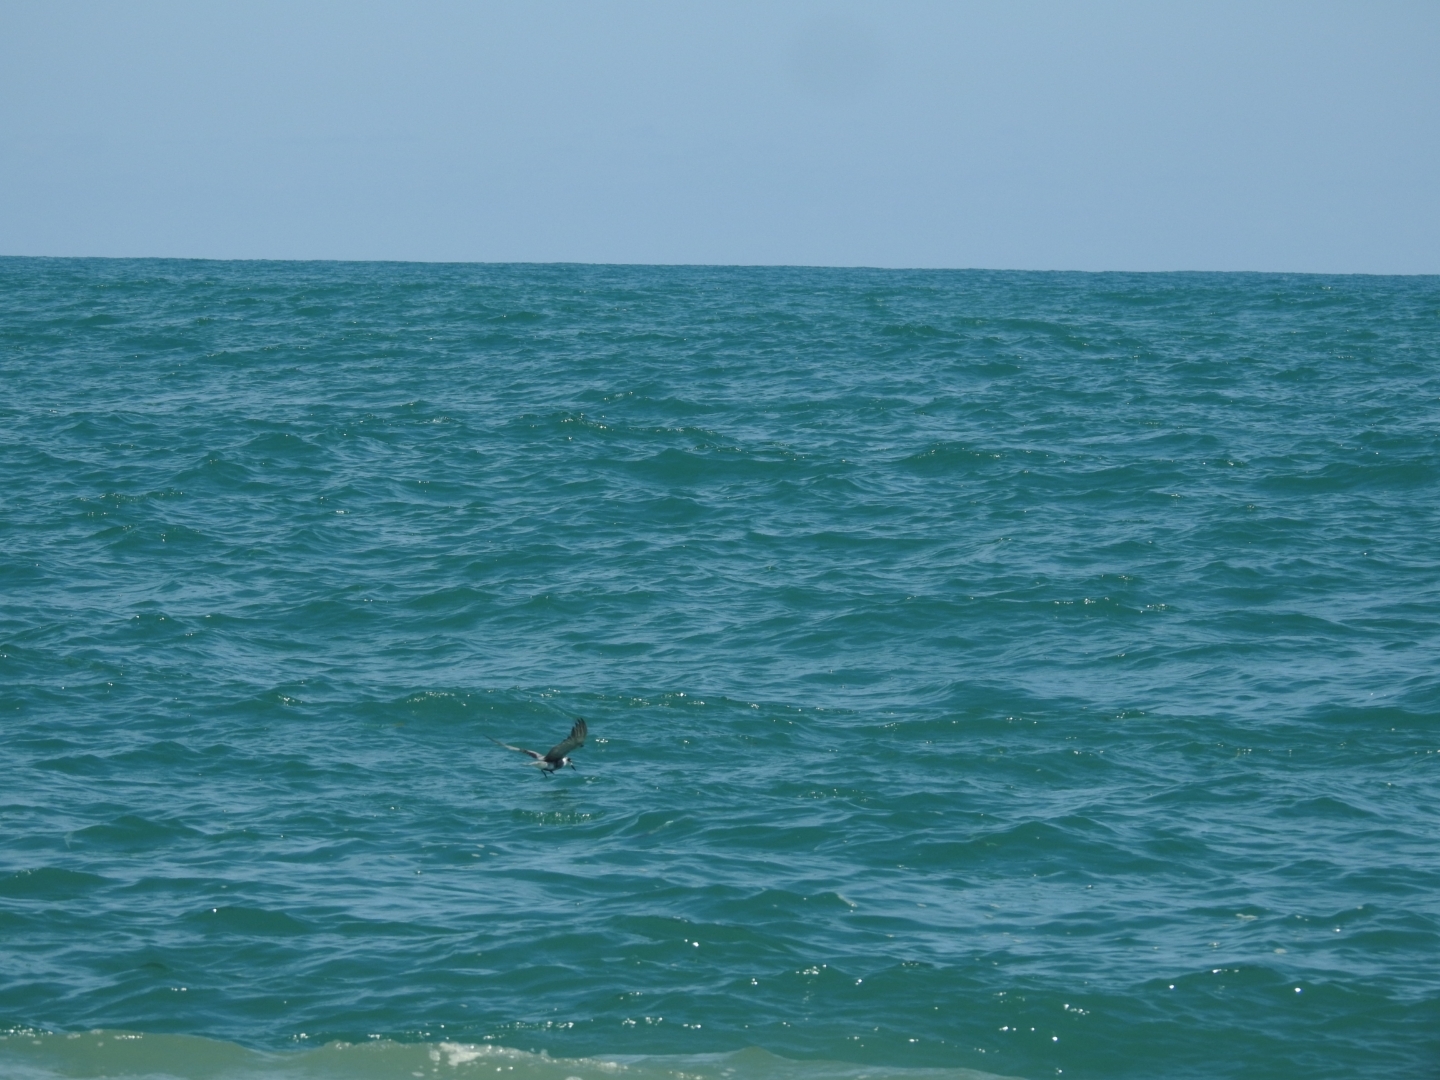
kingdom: Animalia
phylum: Chordata
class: Aves
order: Charadriiformes
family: Laridae
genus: Chlidonias
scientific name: Chlidonias niger
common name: Black tern
